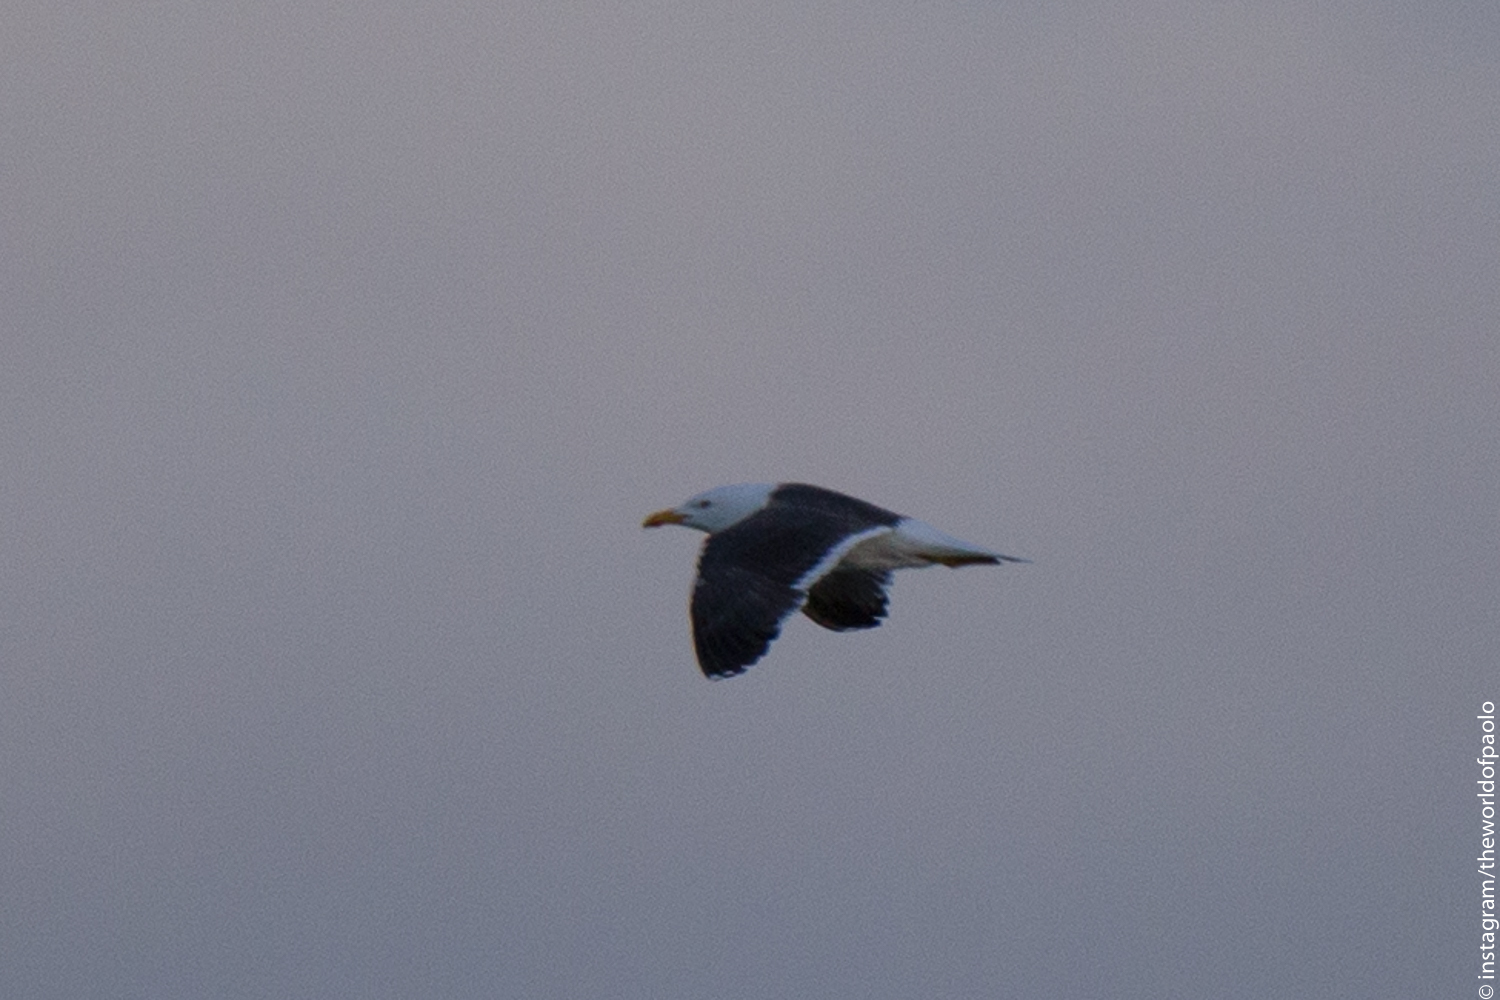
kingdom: Animalia
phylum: Chordata
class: Aves
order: Charadriiformes
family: Laridae
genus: Larus
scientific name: Larus fuscus
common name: Lesser black-backed gull
